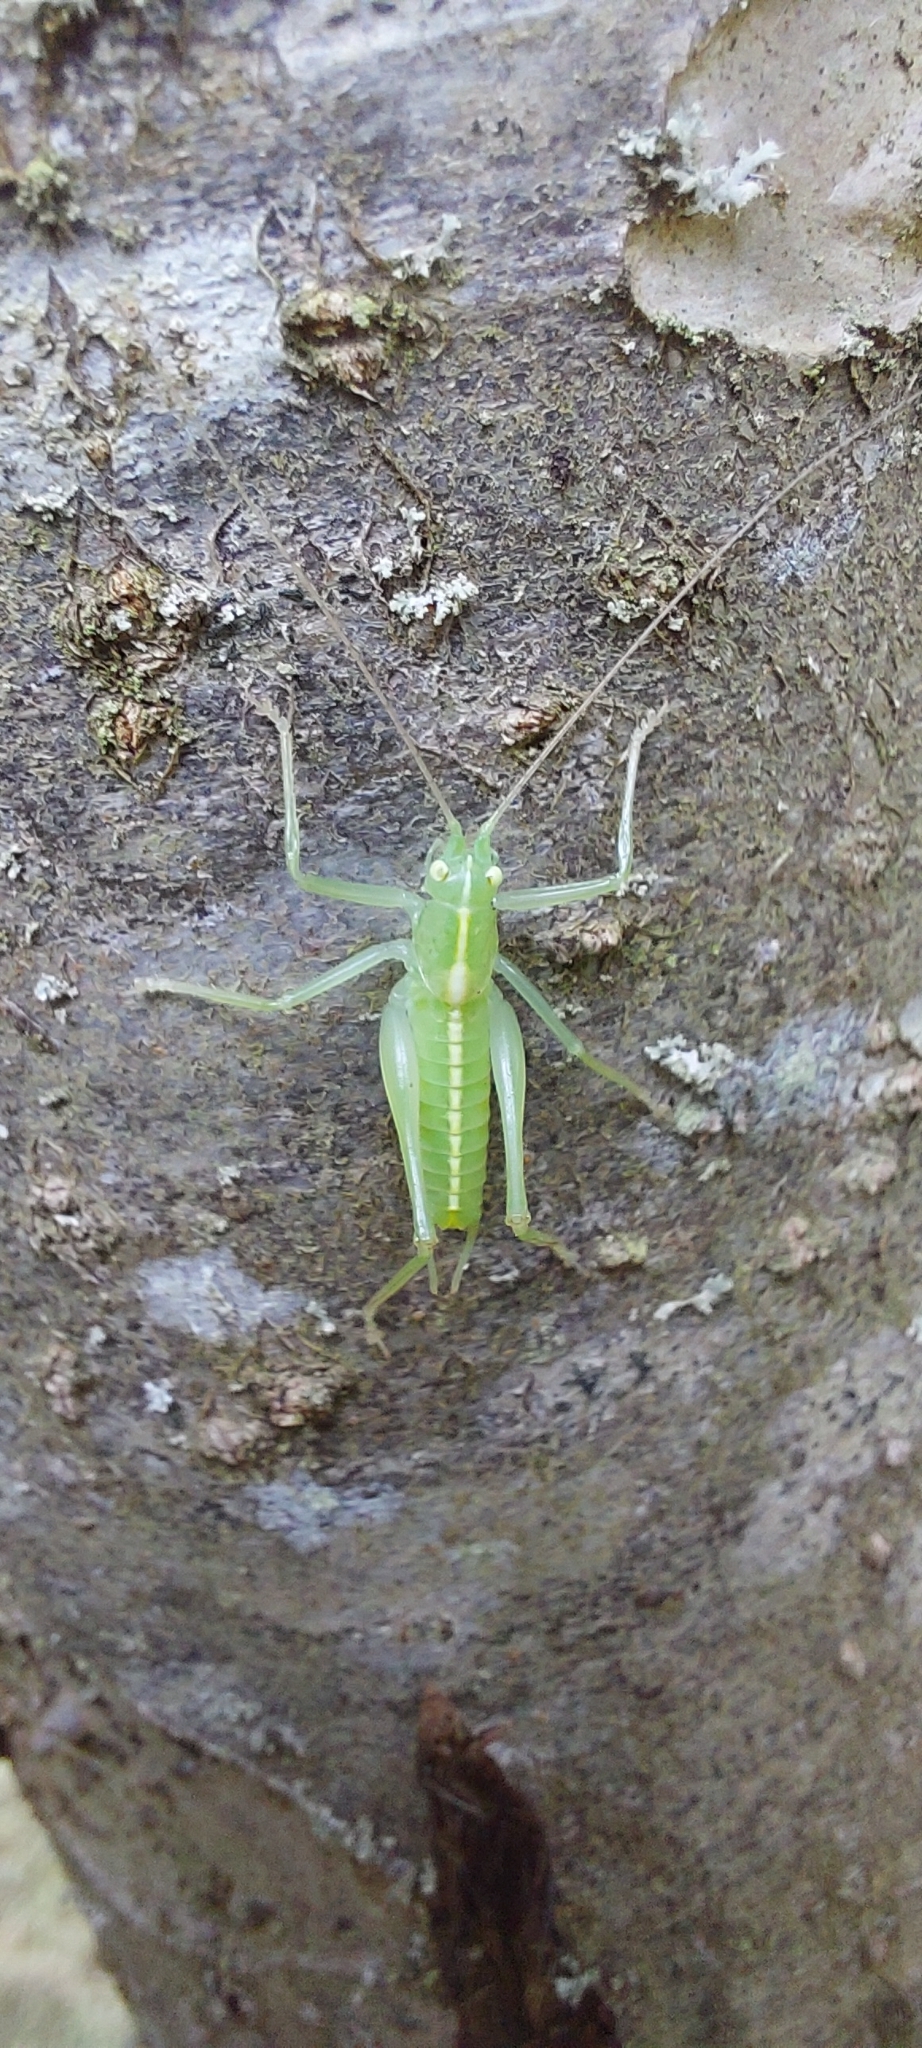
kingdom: Animalia
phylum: Arthropoda
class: Insecta
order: Orthoptera
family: Tettigoniidae
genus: Meconema
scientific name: Meconema meridionale
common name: Southern oak bush-cricket
